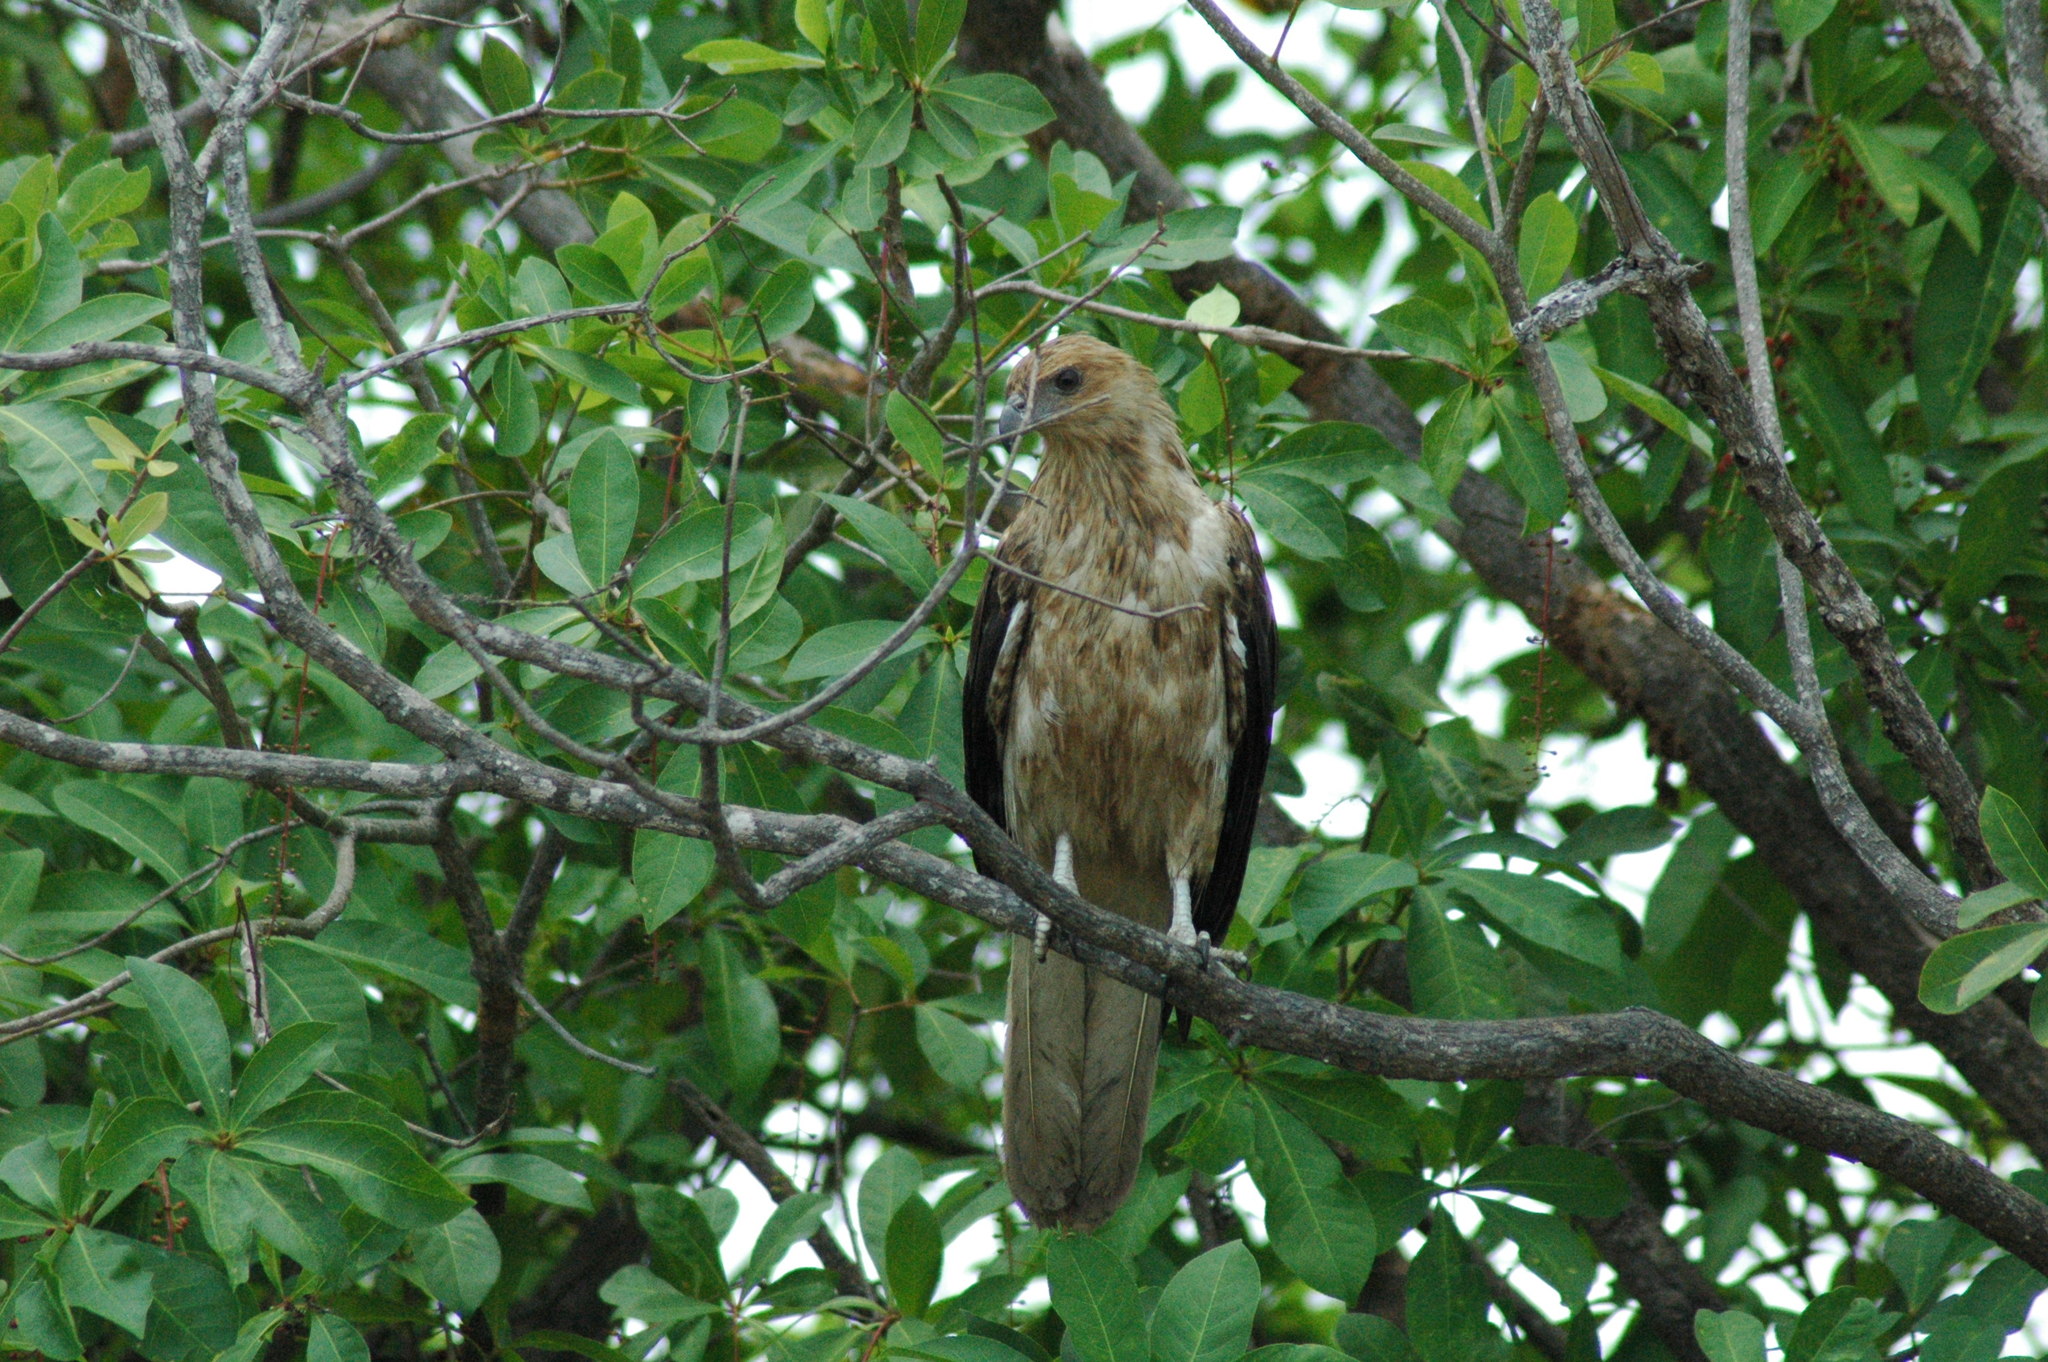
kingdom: Animalia
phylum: Chordata
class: Aves
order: Accipitriformes
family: Accipitridae
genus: Haliastur
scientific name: Haliastur sphenurus
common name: Whistling kite
